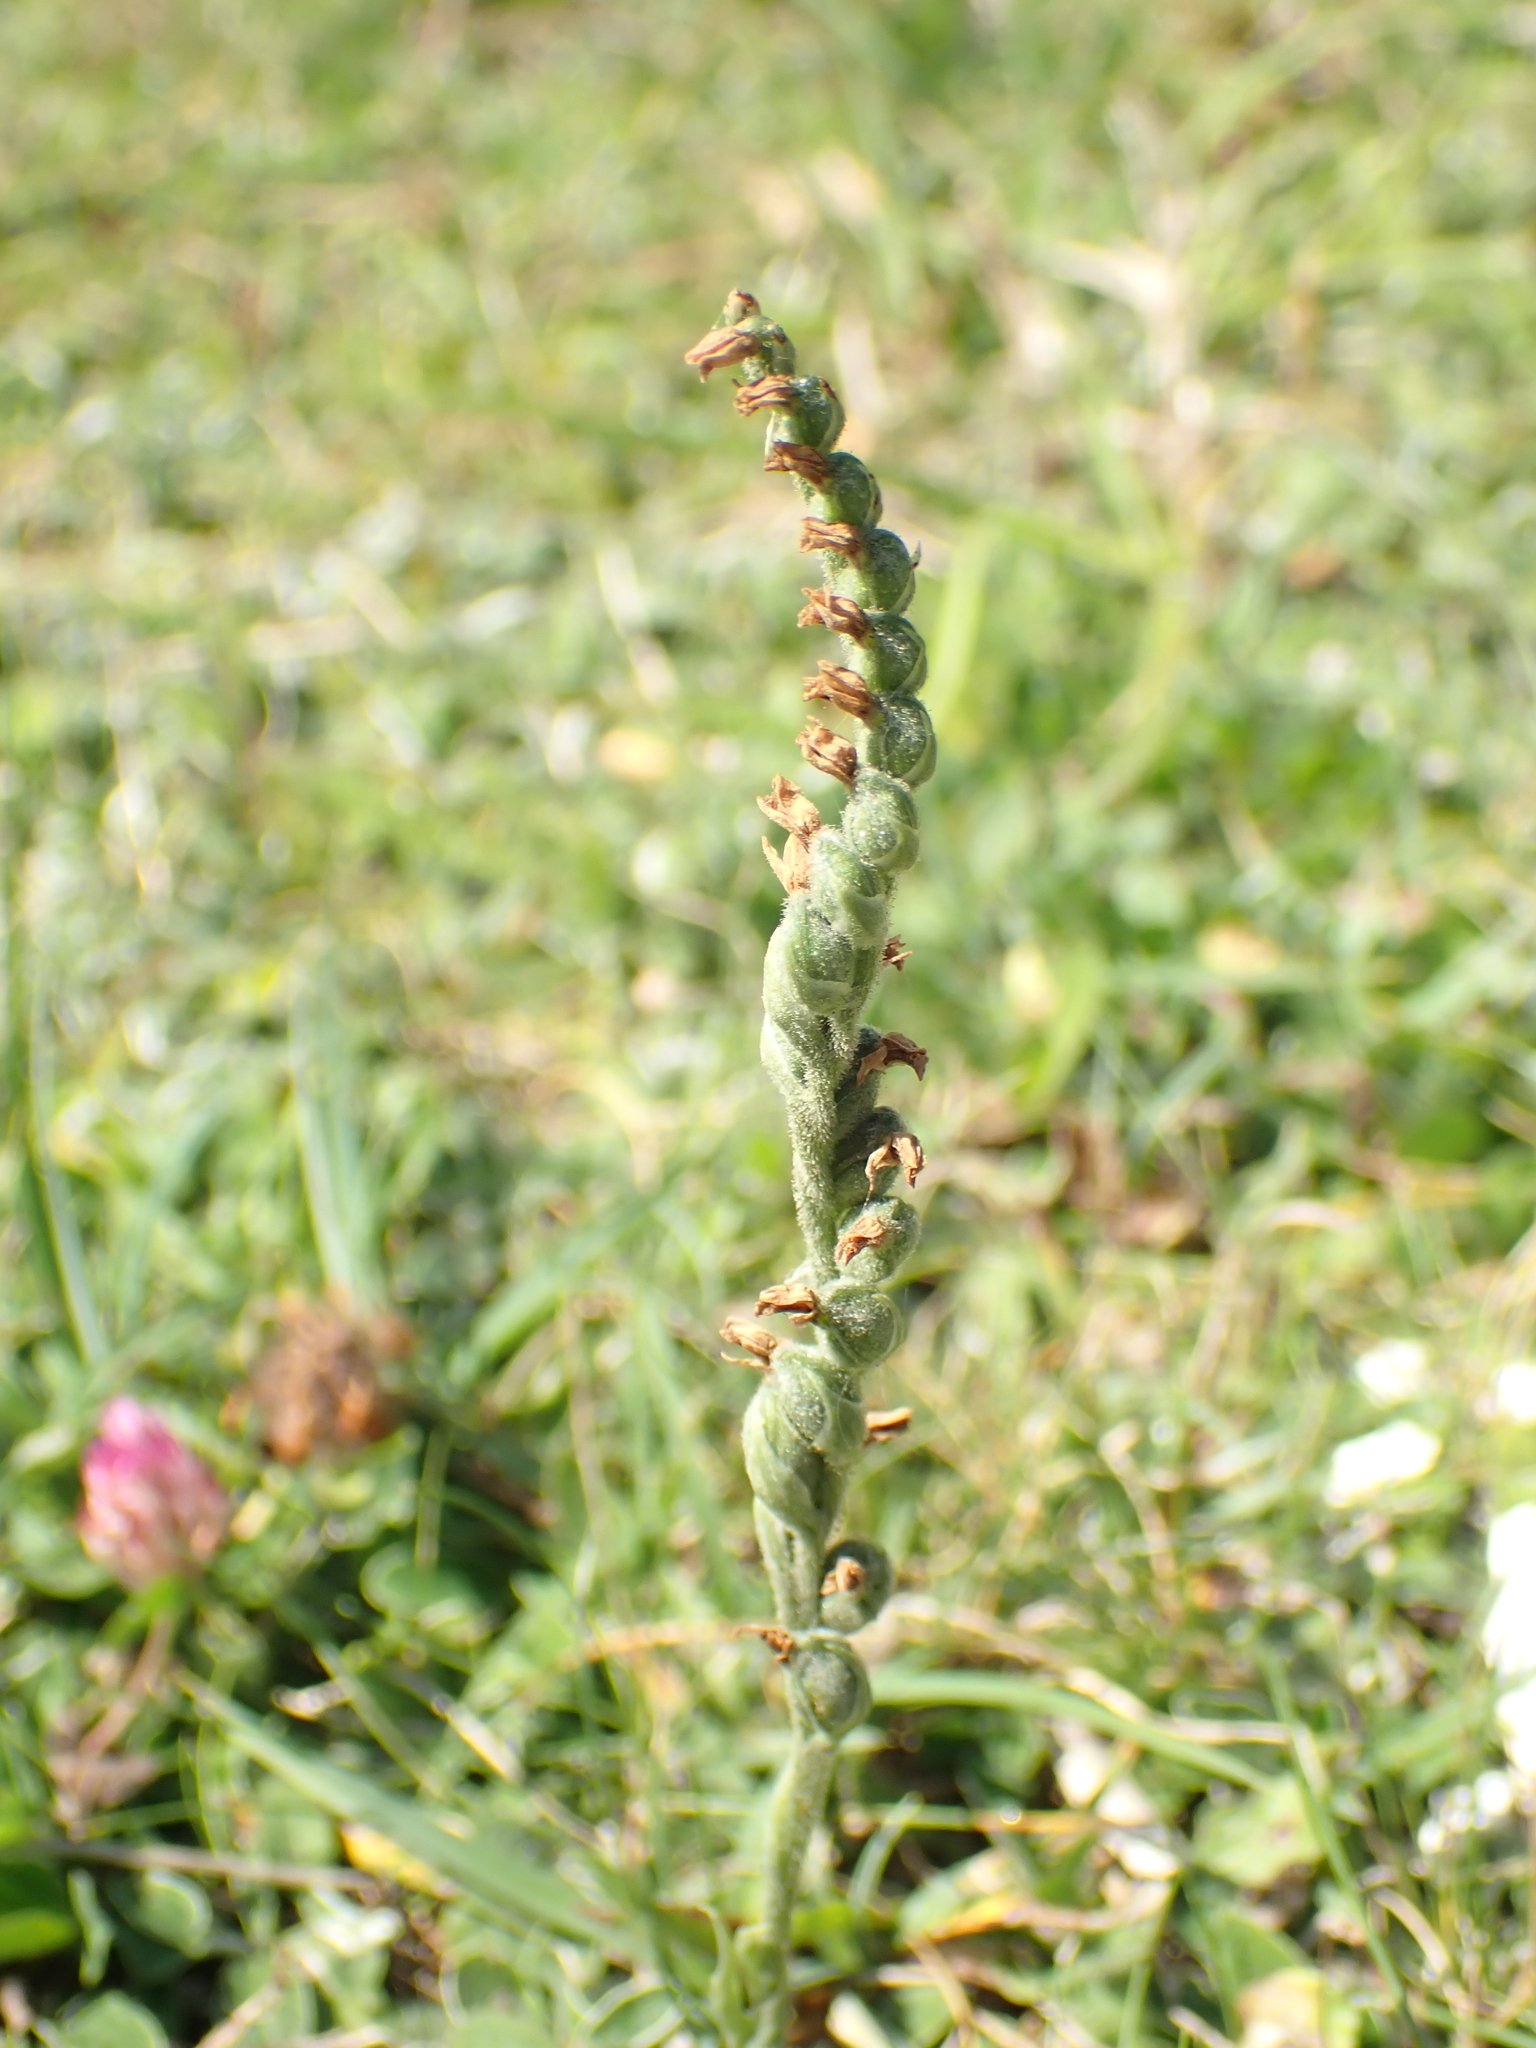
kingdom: Plantae
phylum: Tracheophyta
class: Liliopsida
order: Asparagales
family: Orchidaceae
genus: Spiranthes
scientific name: Spiranthes spiralis
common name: Autumn lady's-tresses
